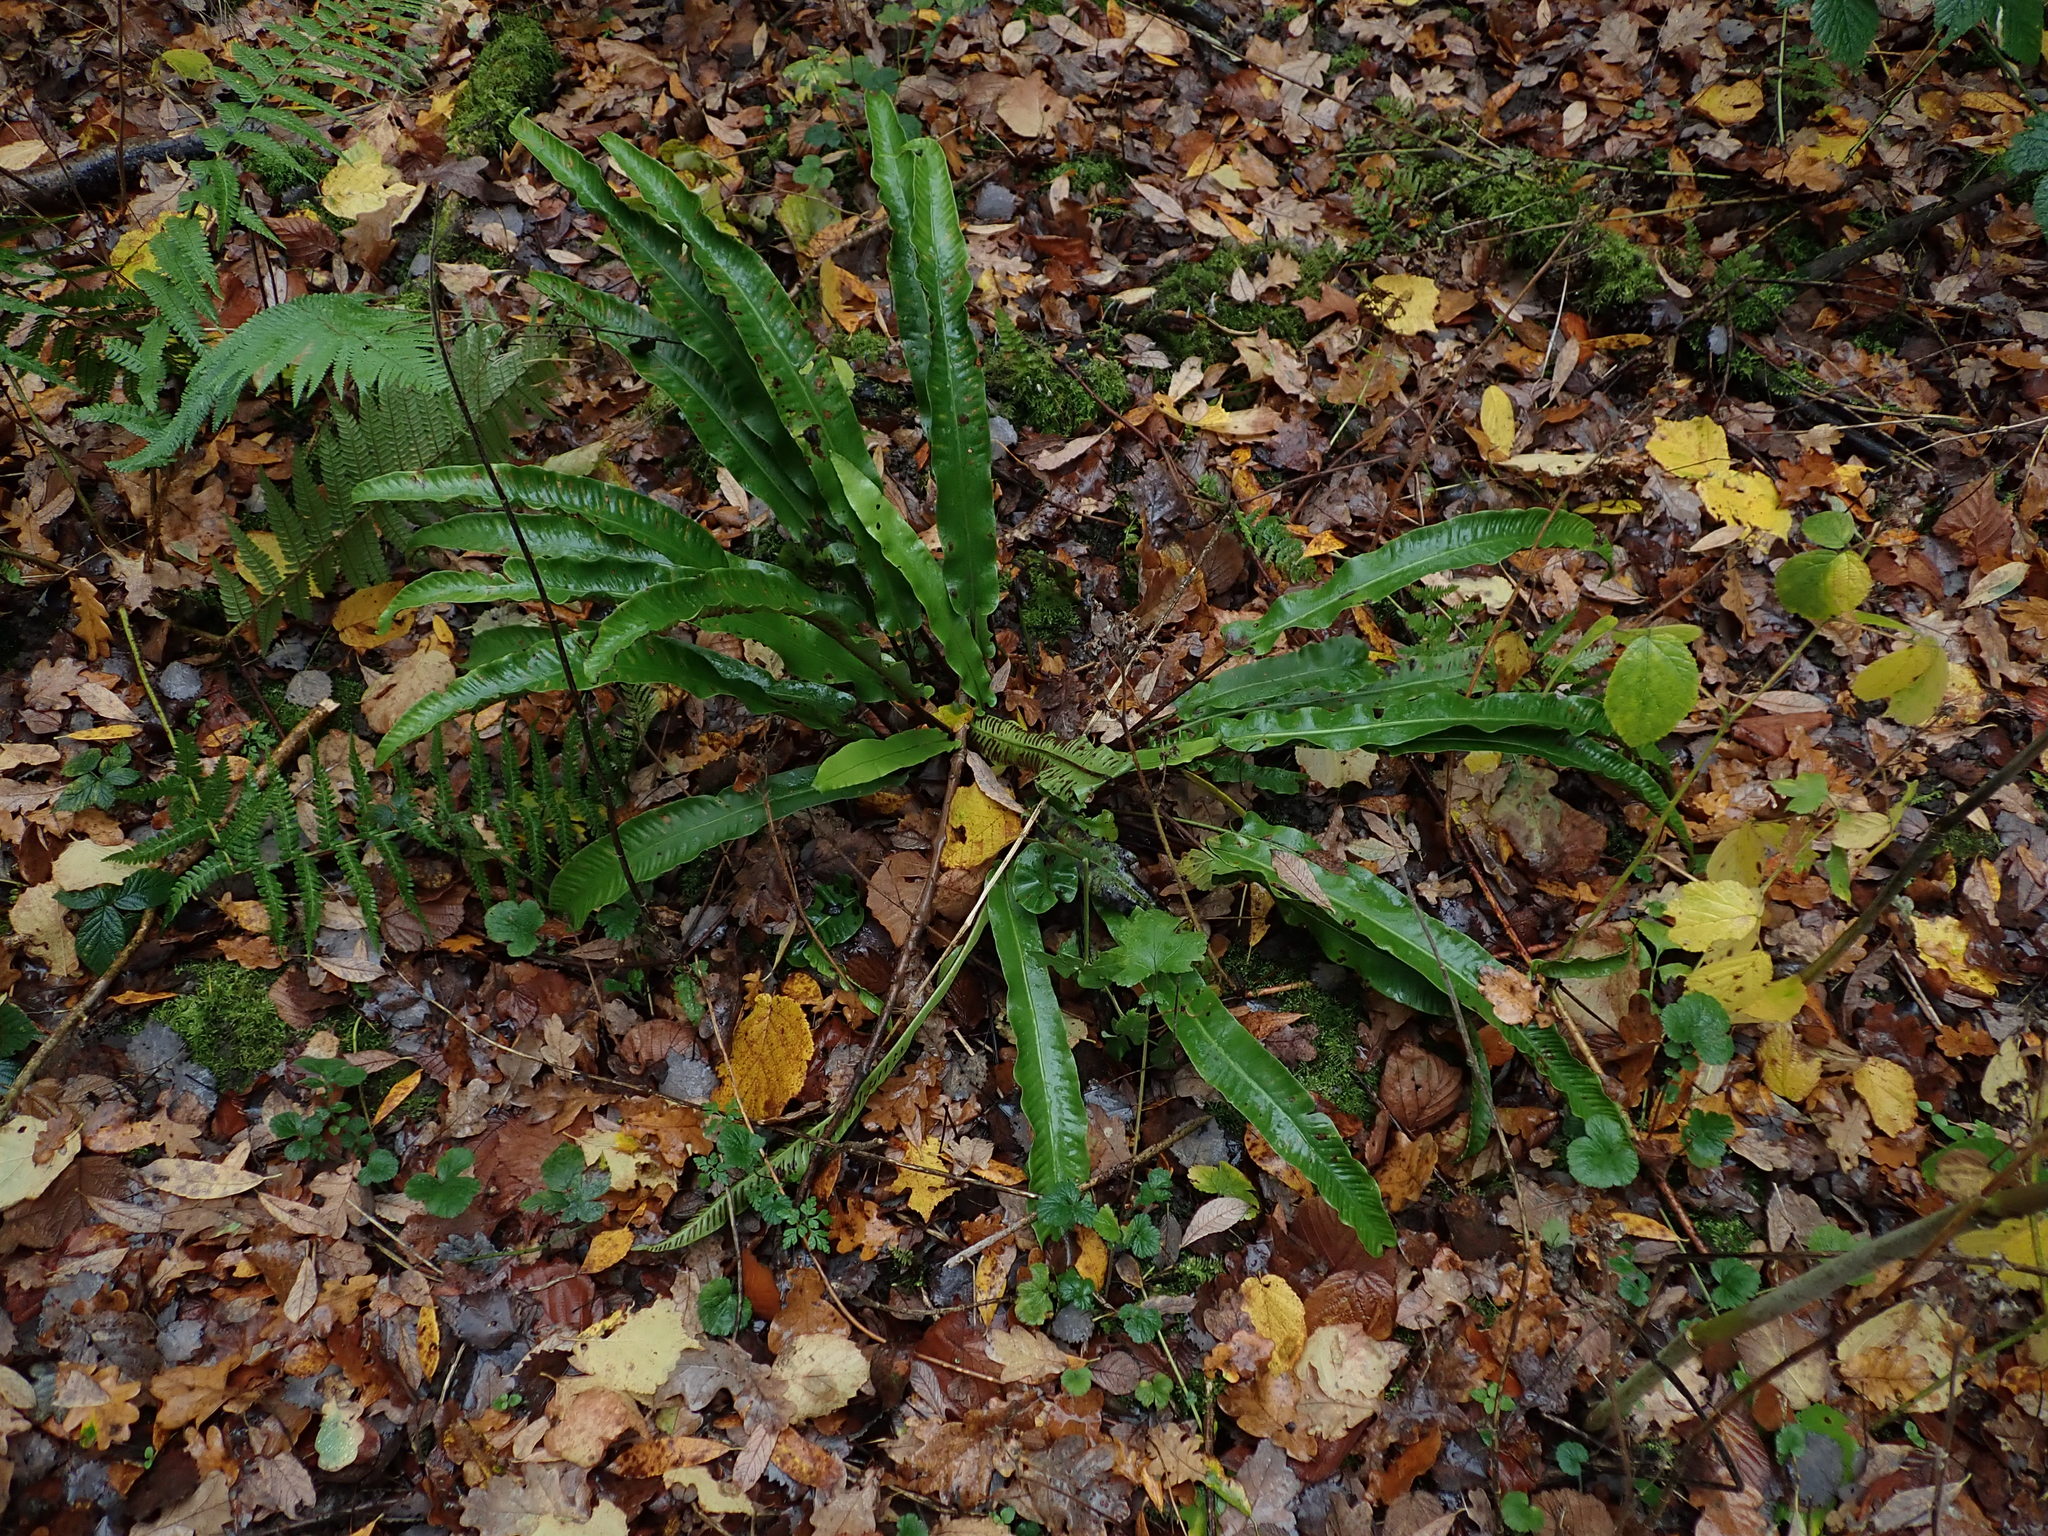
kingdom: Plantae
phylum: Tracheophyta
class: Polypodiopsida
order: Polypodiales
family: Aspleniaceae
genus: Asplenium
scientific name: Asplenium scolopendrium
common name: Hart's-tongue fern
